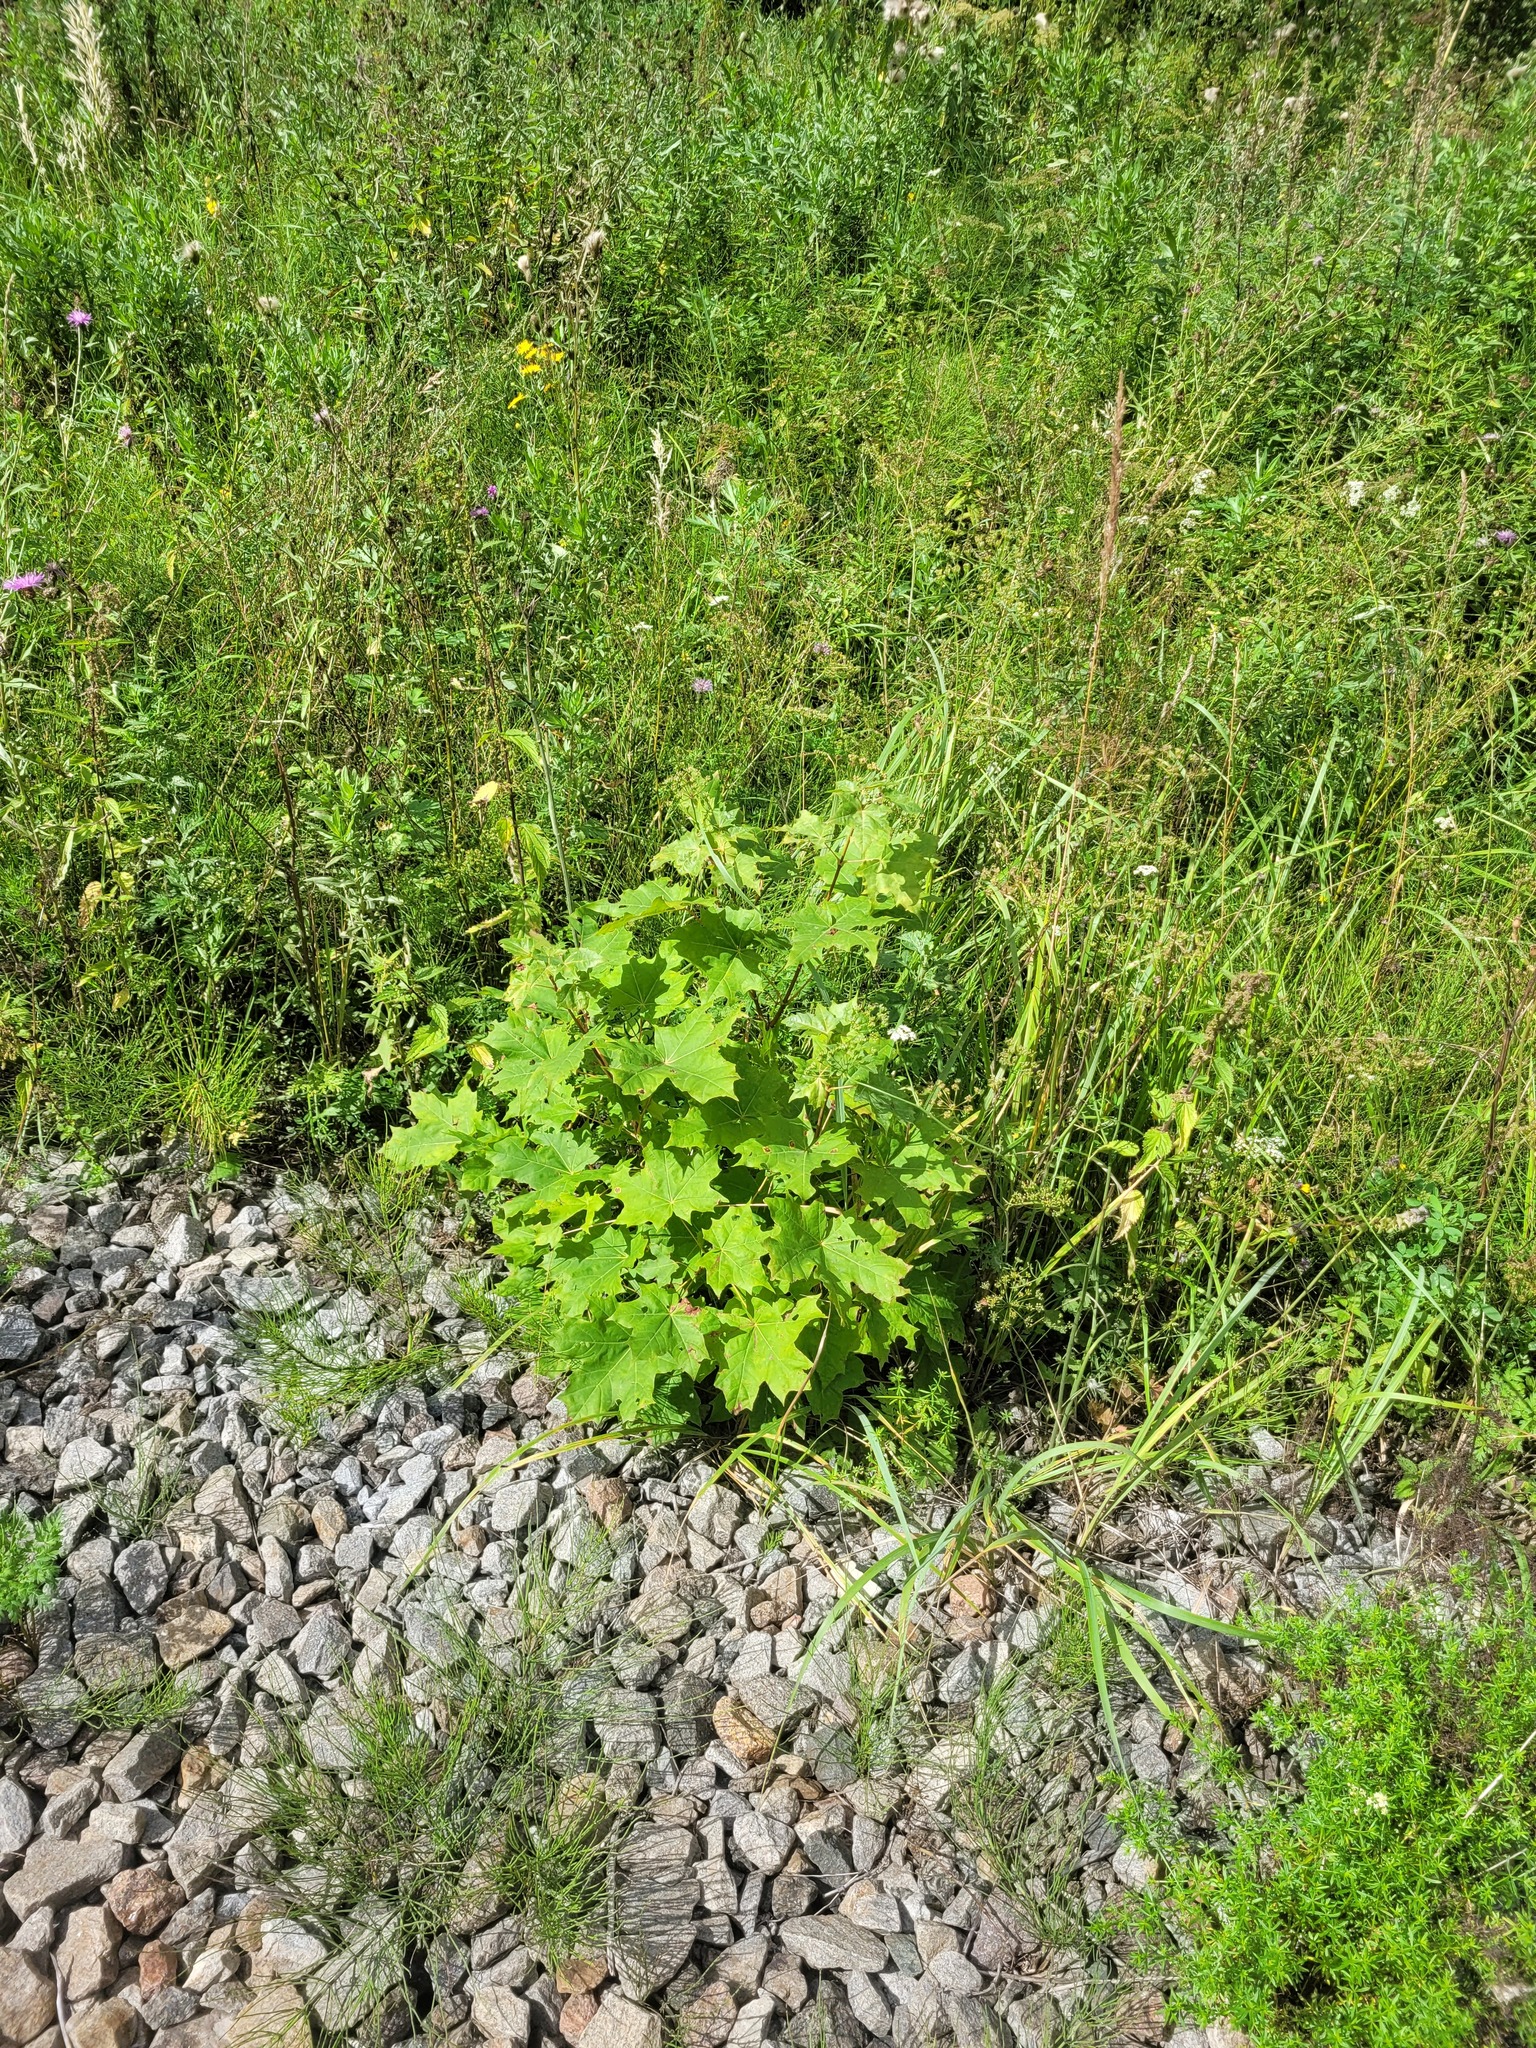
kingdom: Plantae
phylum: Tracheophyta
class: Magnoliopsida
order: Sapindales
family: Sapindaceae
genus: Acer
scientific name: Acer platanoides
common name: Norway maple
